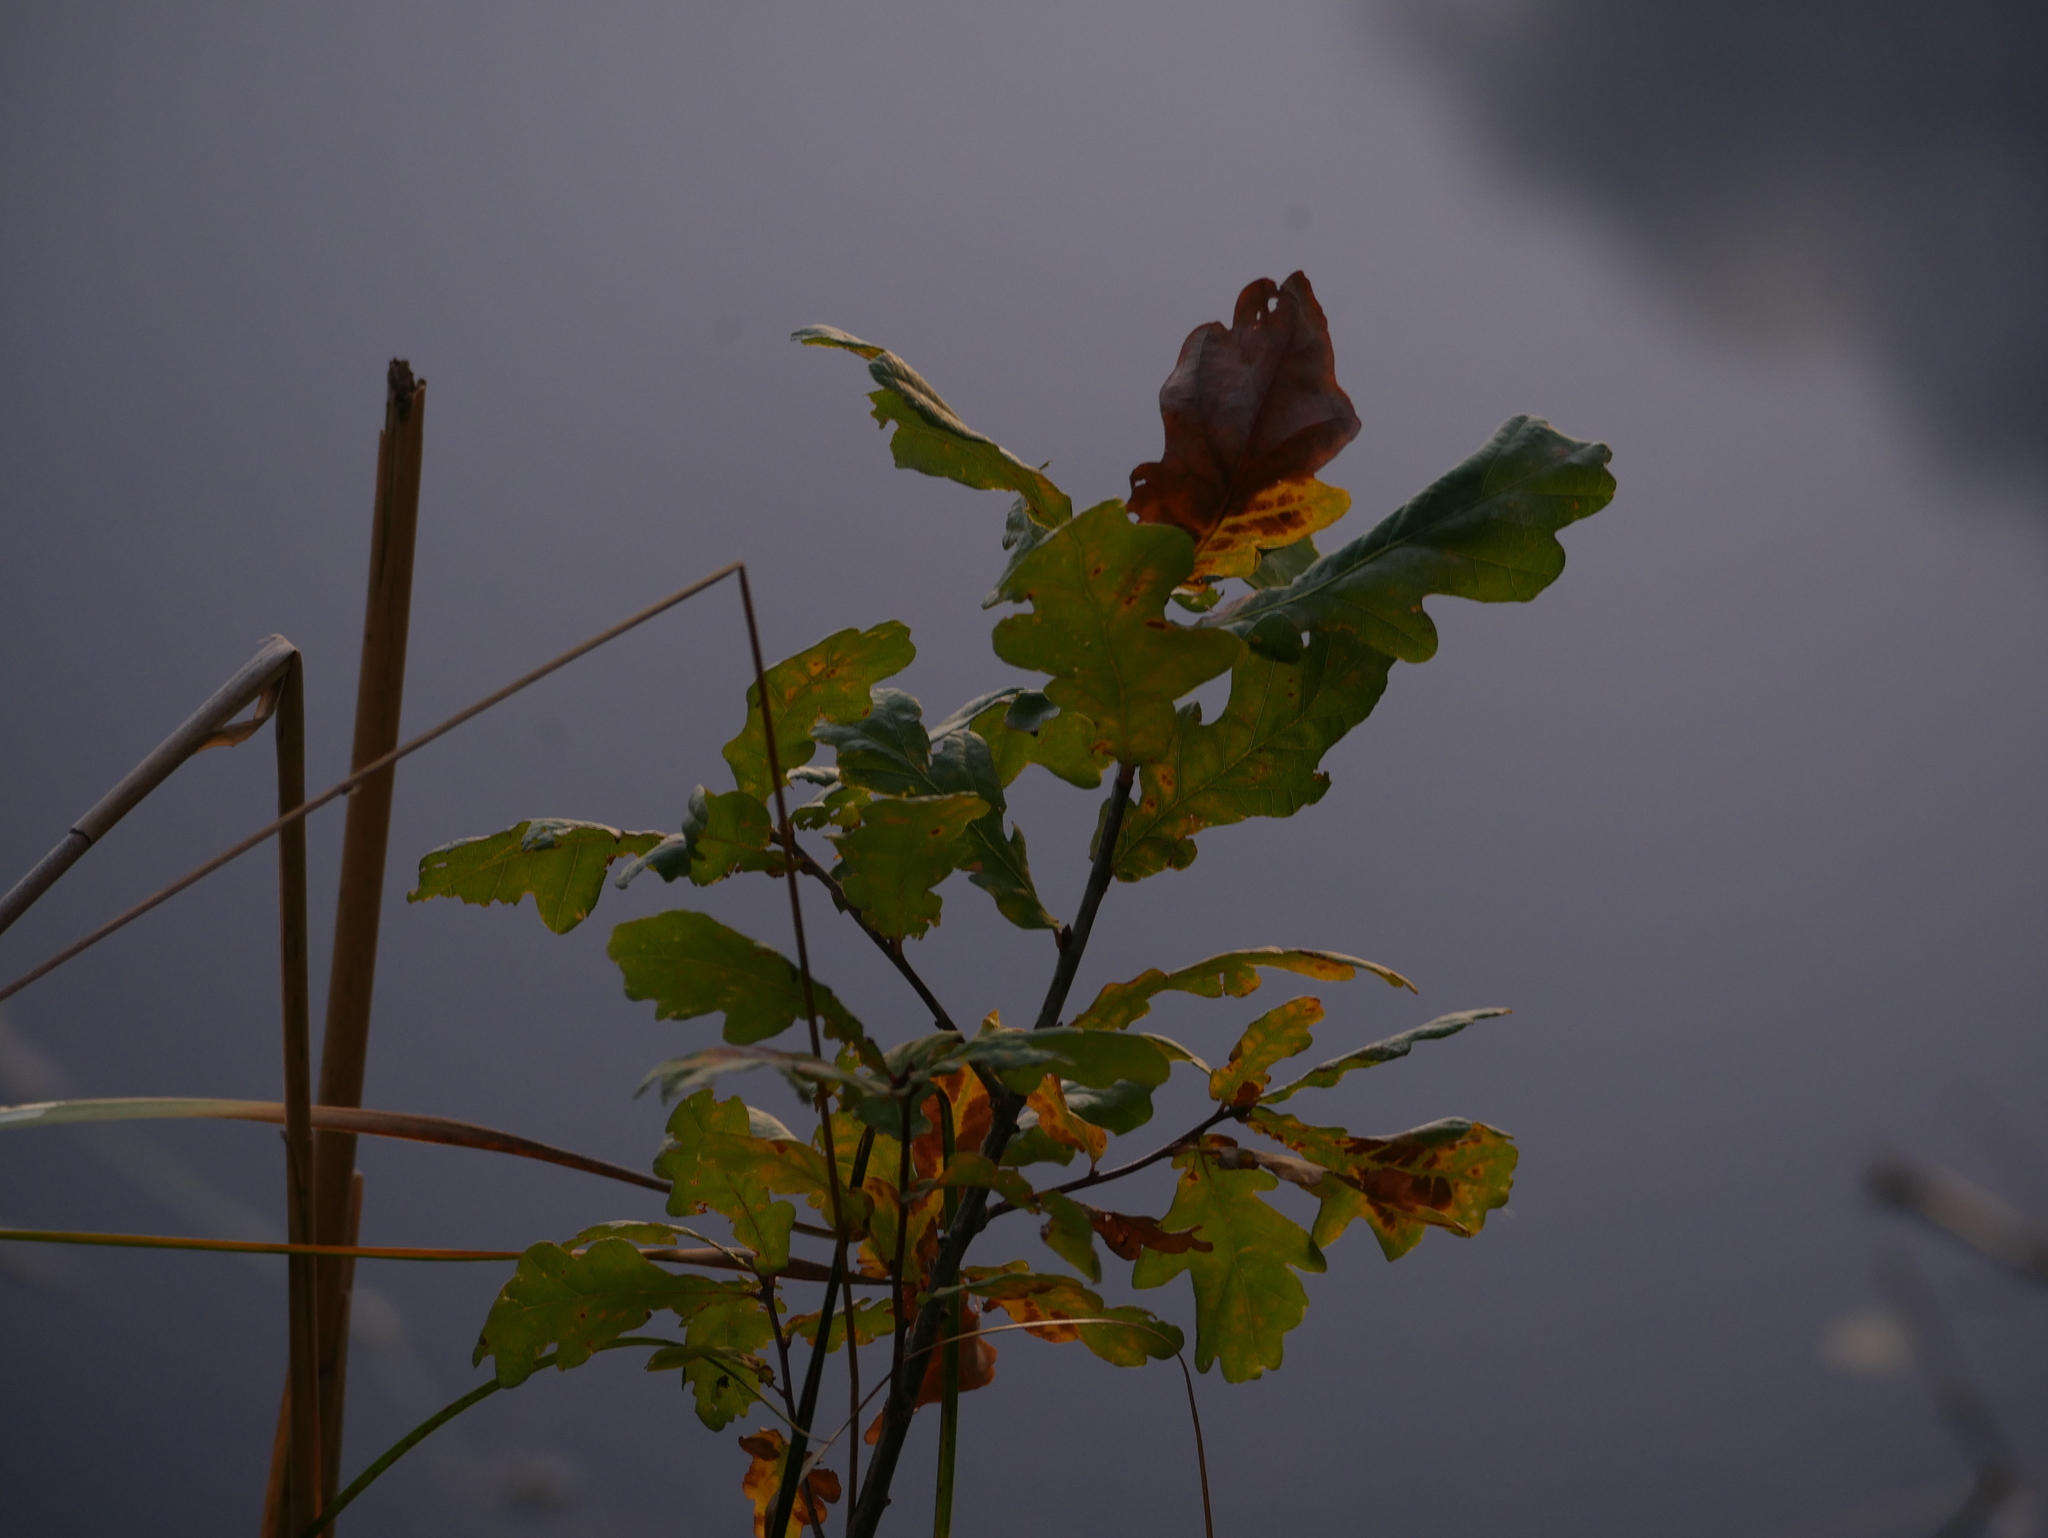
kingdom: Plantae
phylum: Tracheophyta
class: Magnoliopsida
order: Fagales
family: Fagaceae
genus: Quercus
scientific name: Quercus robur
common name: Pedunculate oak
